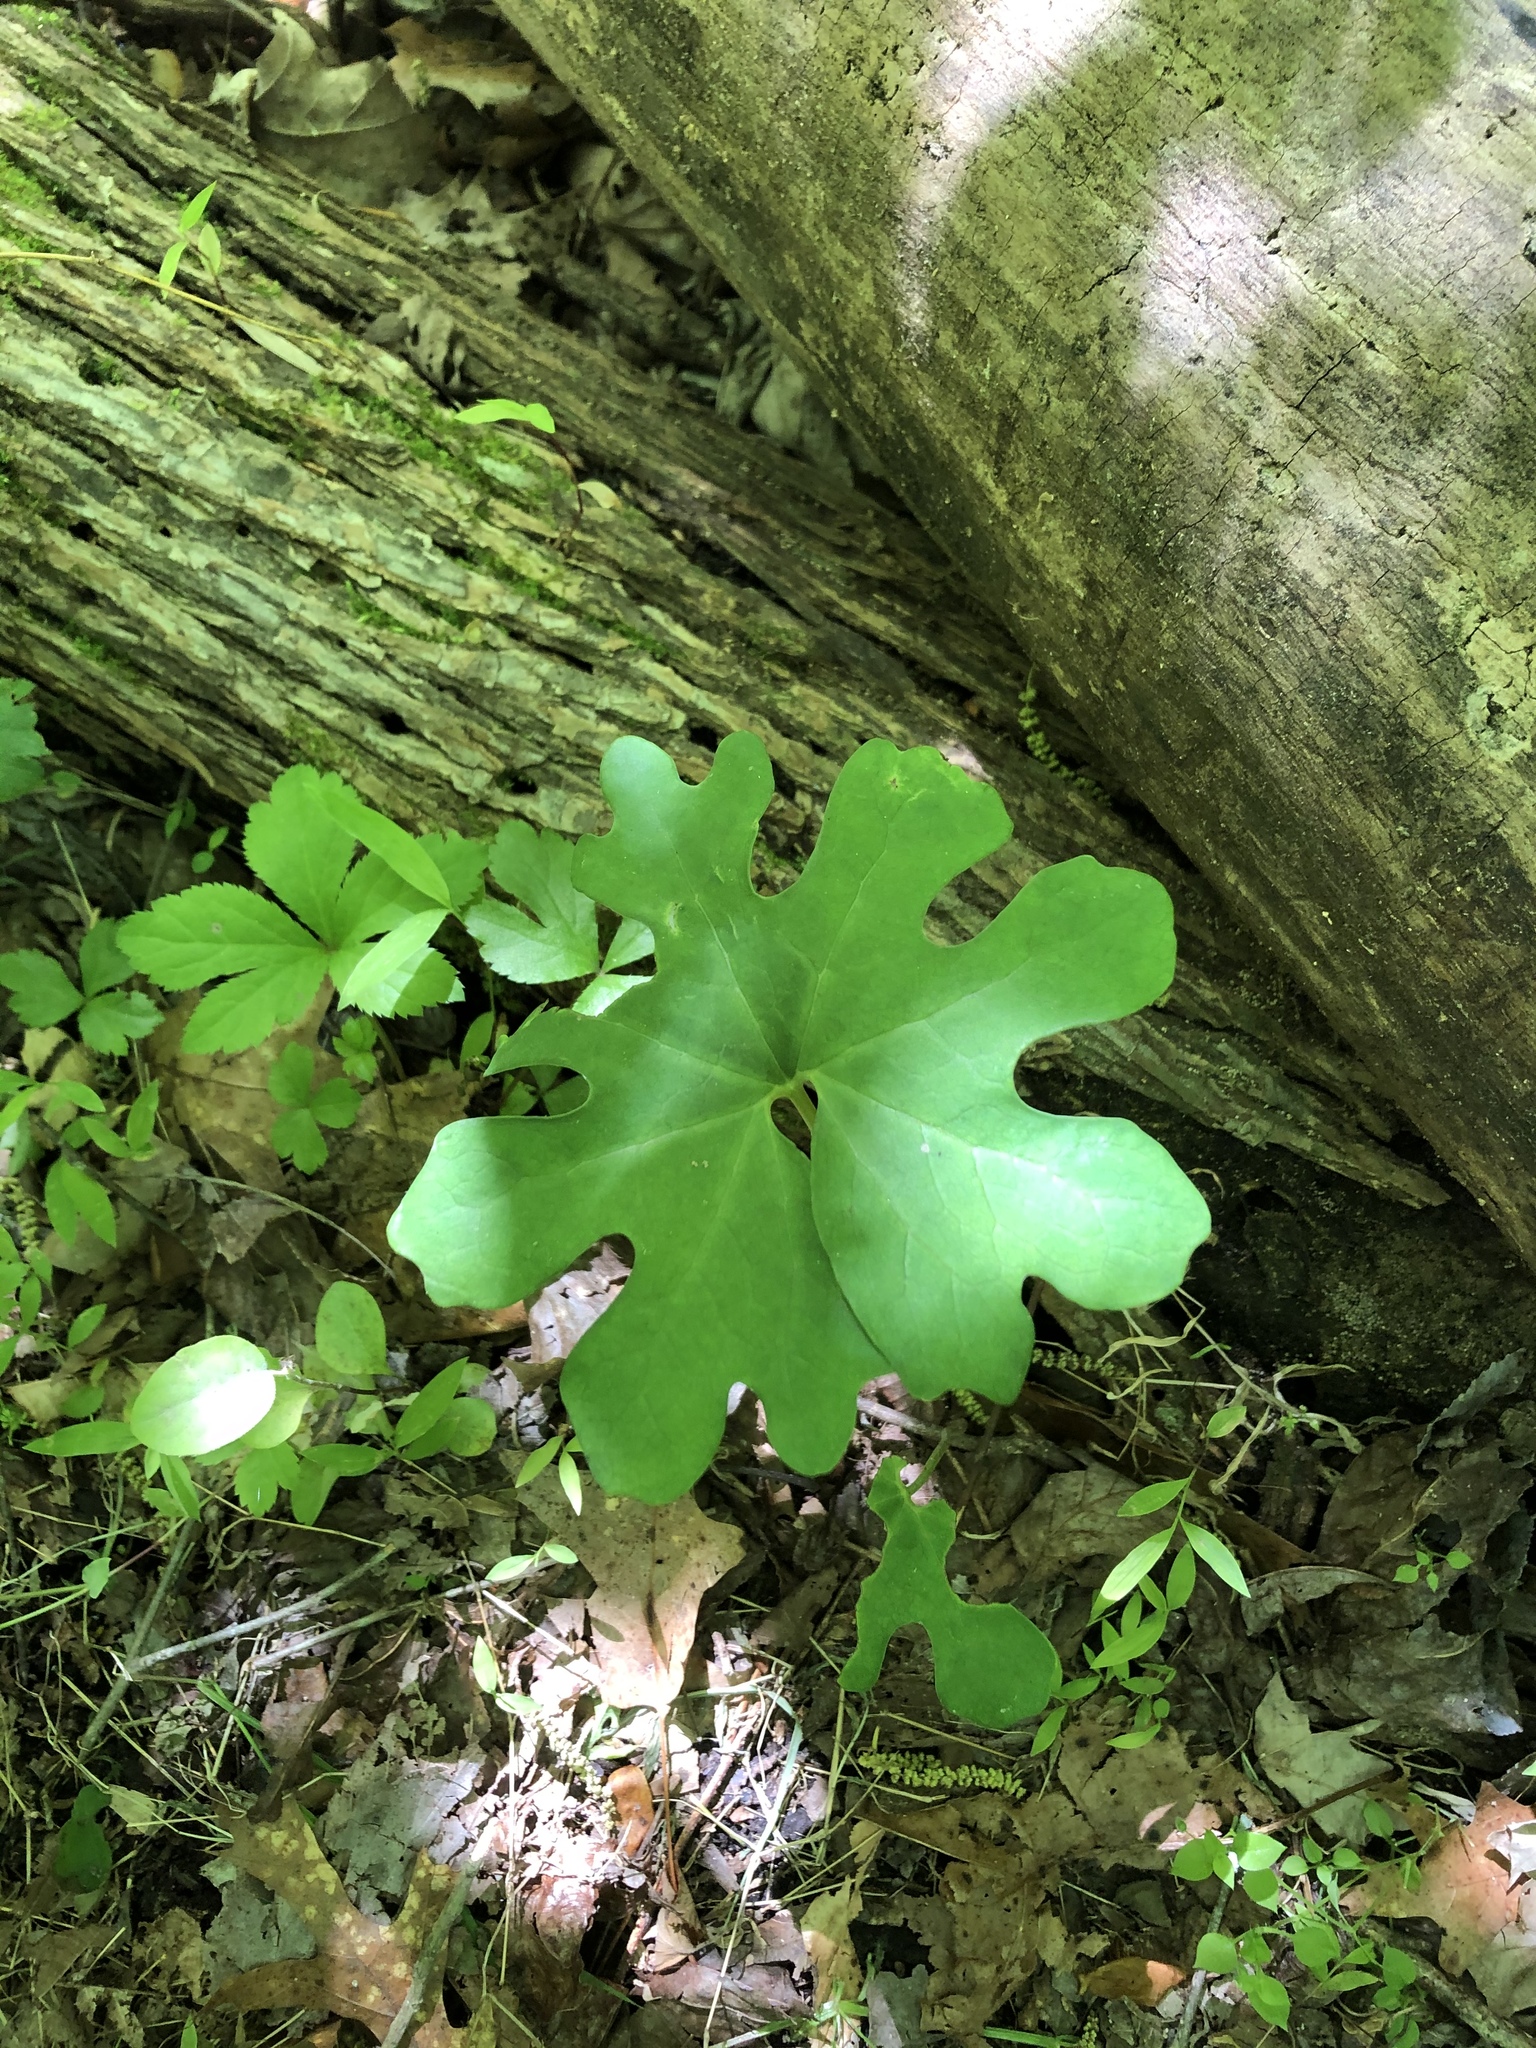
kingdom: Plantae
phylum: Tracheophyta
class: Magnoliopsida
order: Ranunculales
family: Papaveraceae
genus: Sanguinaria
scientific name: Sanguinaria canadensis
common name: Bloodroot
